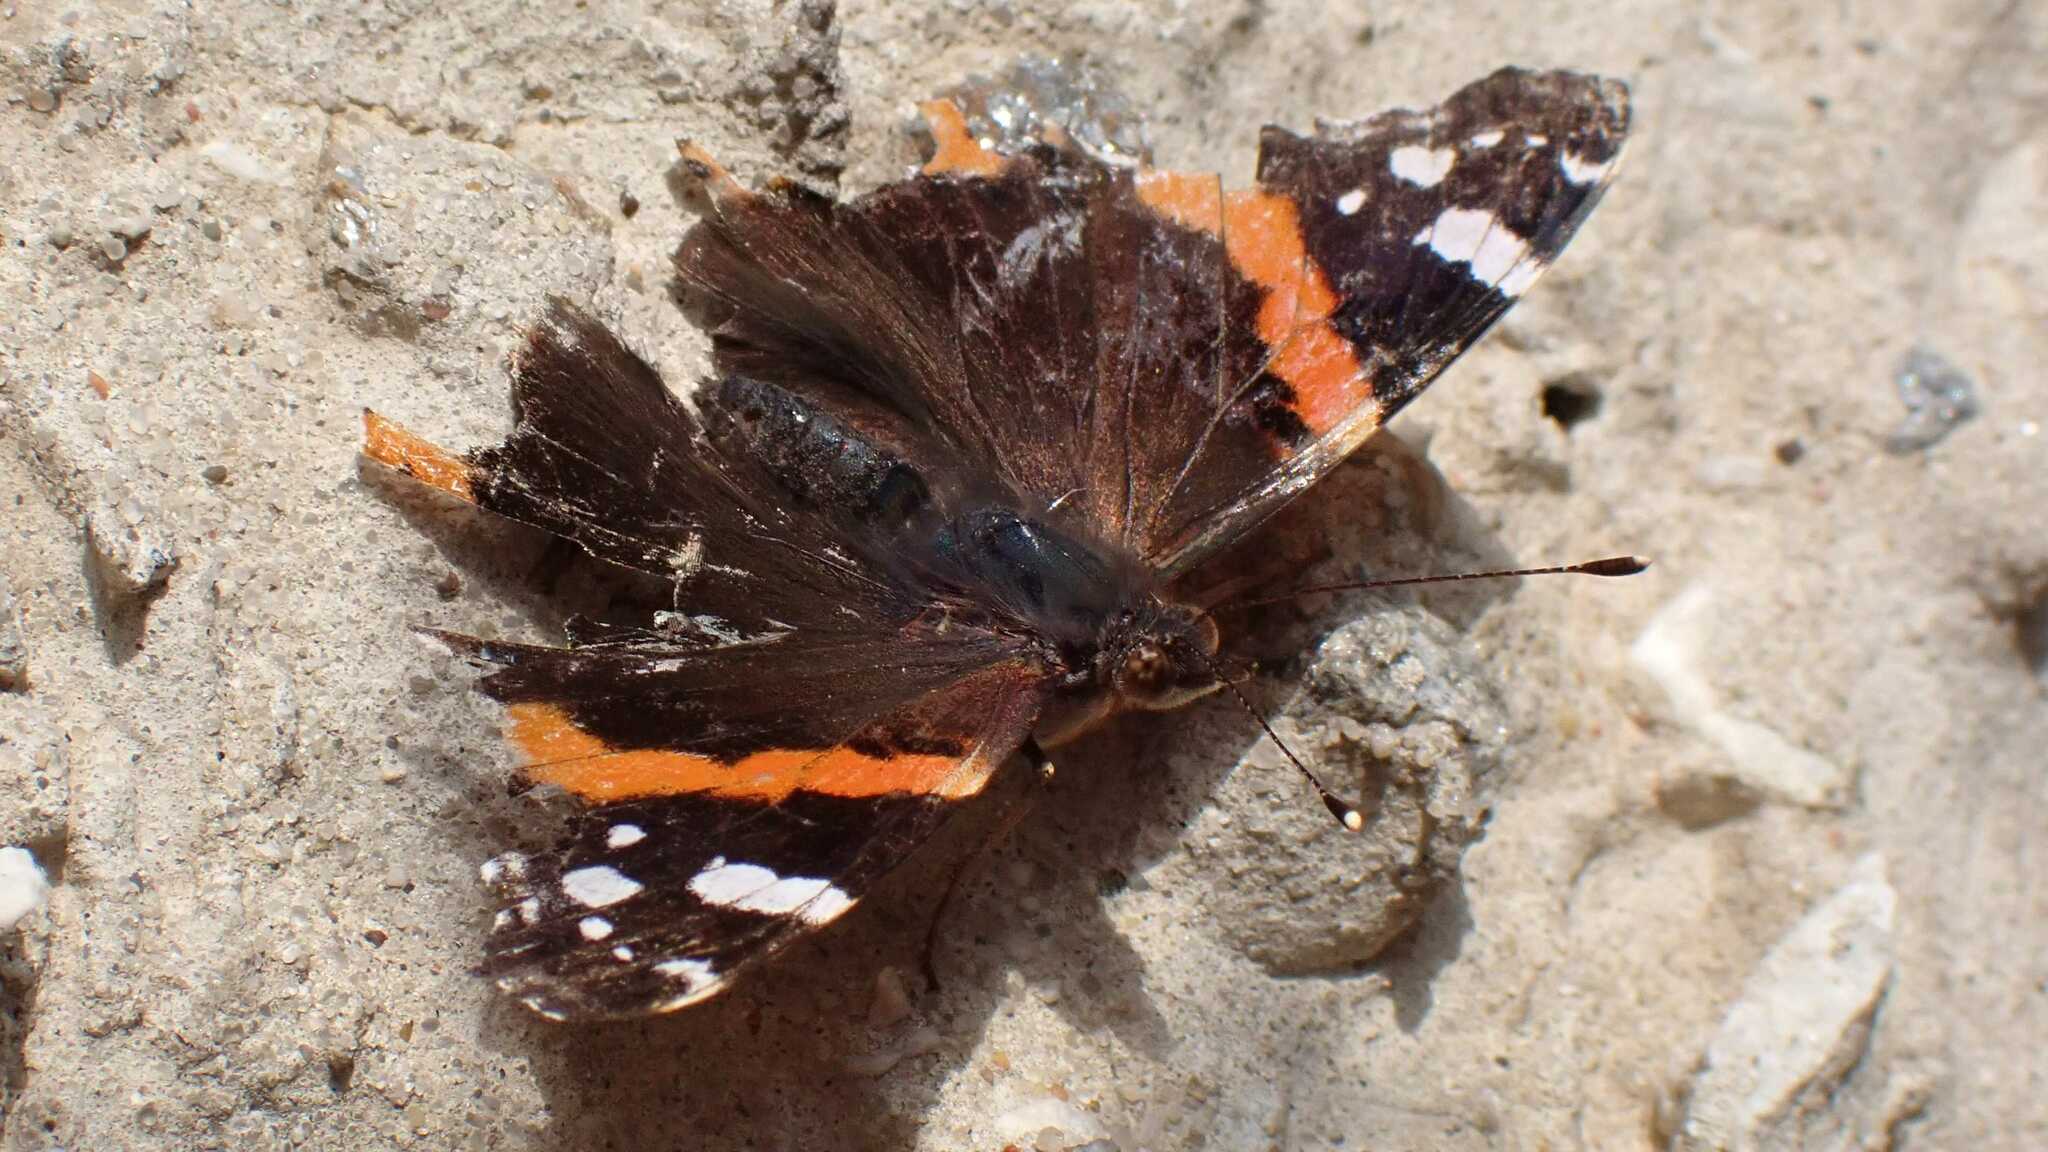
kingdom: Animalia
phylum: Arthropoda
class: Insecta
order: Lepidoptera
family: Nymphalidae
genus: Vanessa
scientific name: Vanessa atalanta
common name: Red admiral
